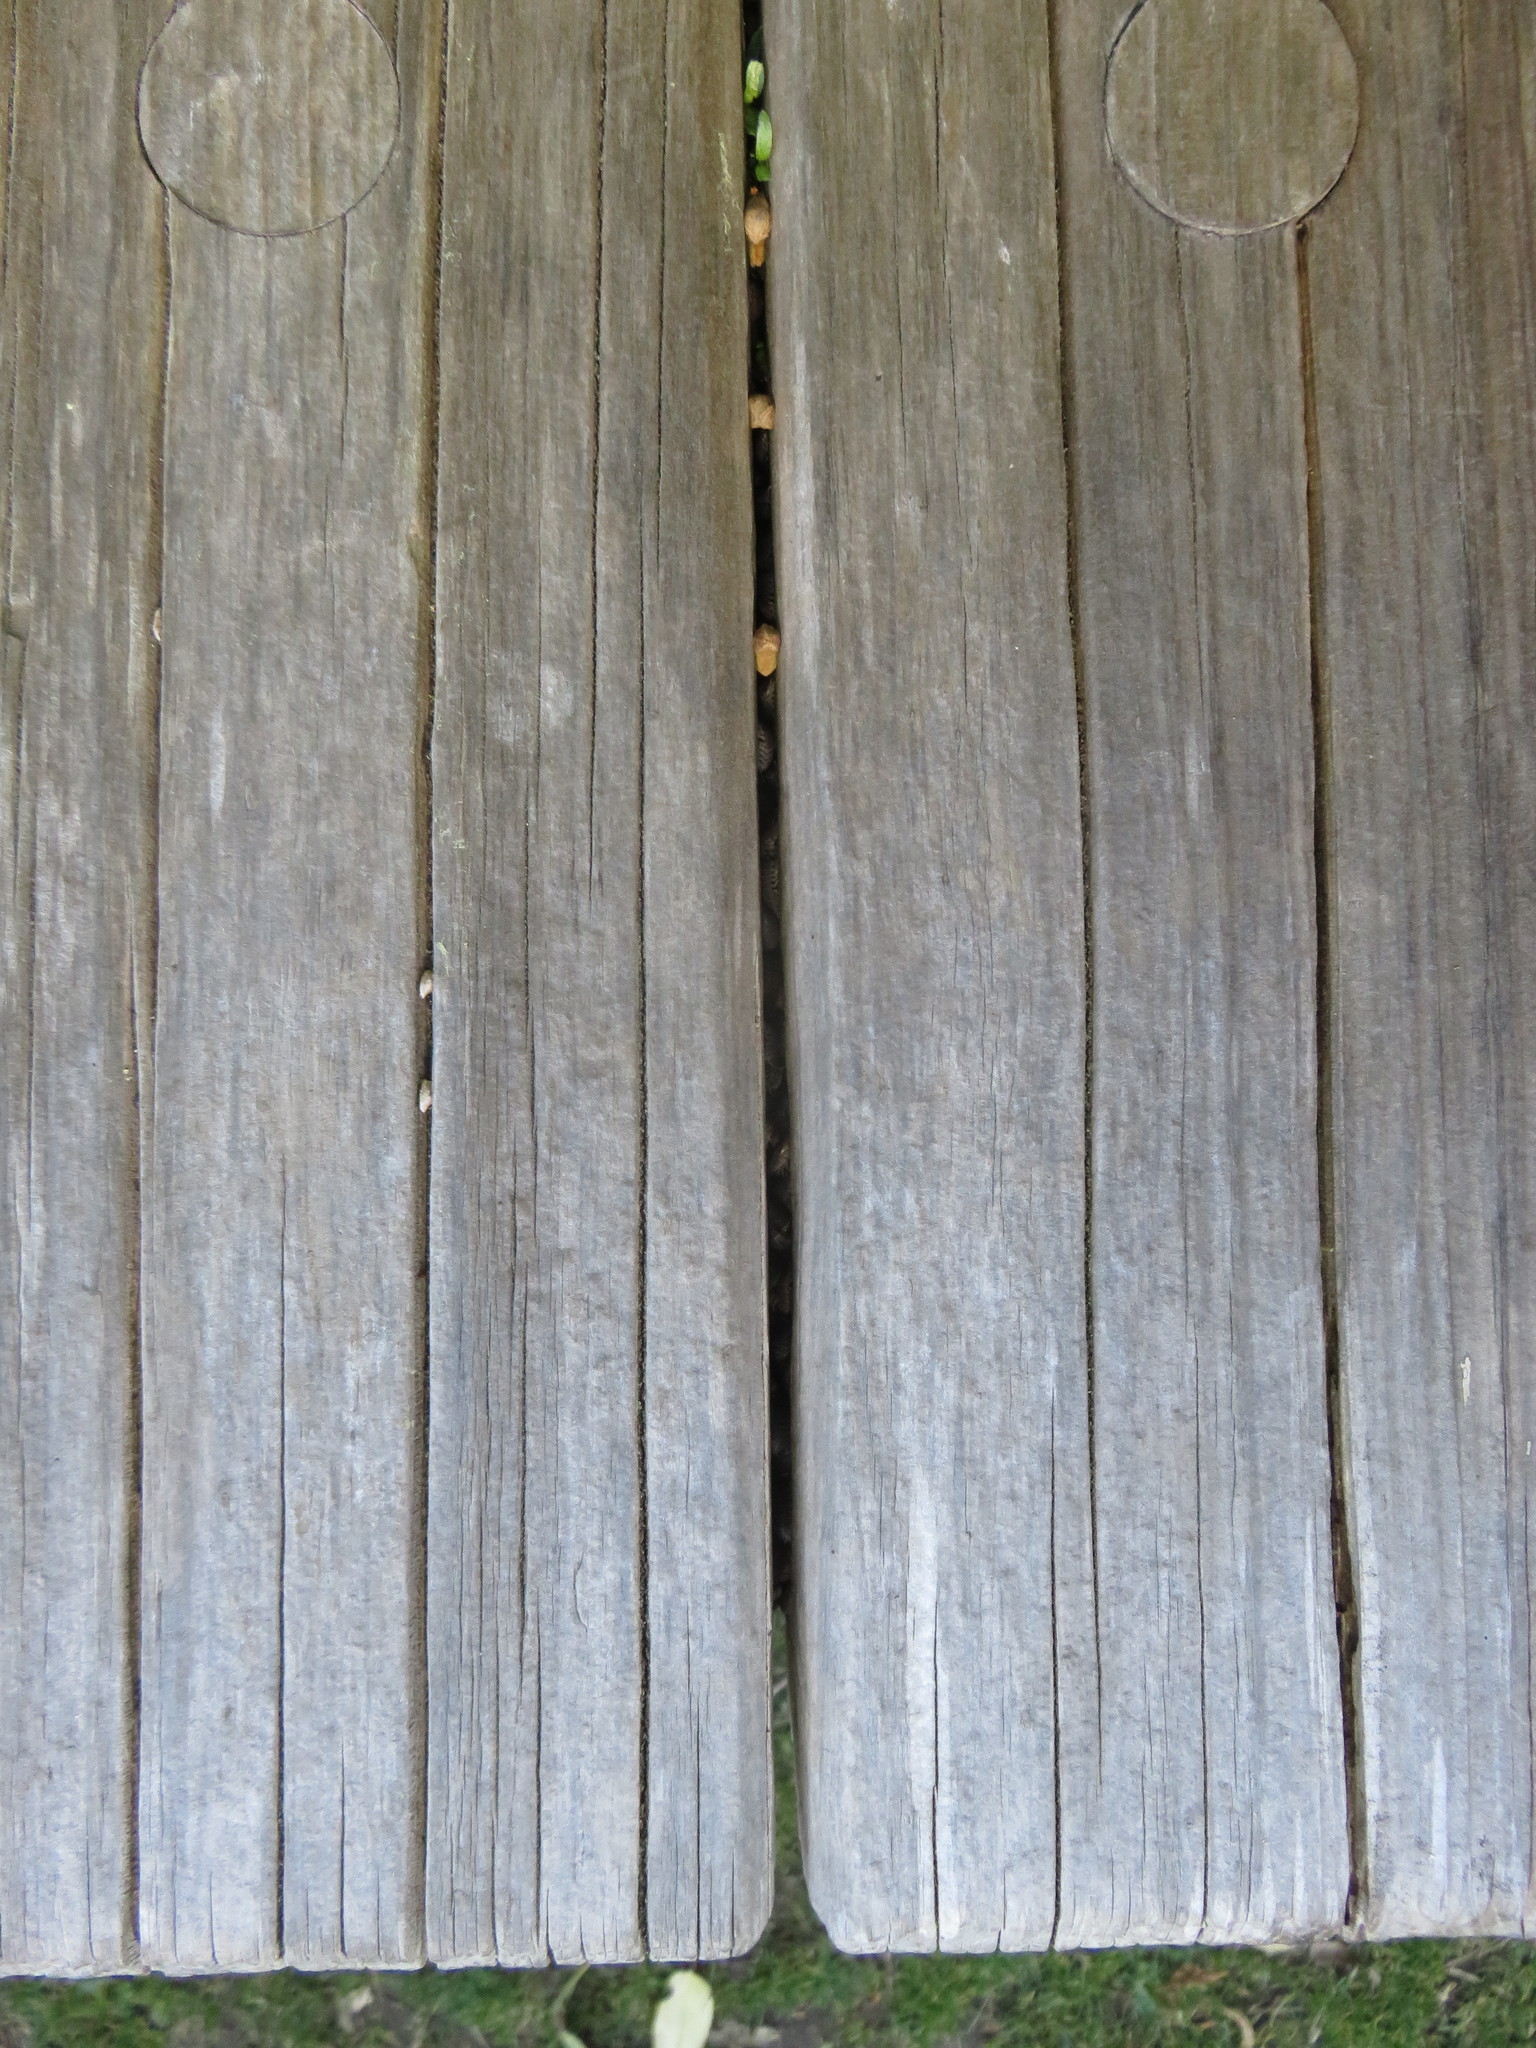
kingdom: Animalia
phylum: Arthropoda
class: Malacostraca
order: Isopoda
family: Porcellionidae
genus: Porcellio
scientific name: Porcellio scaber
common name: Common rough woodlouse
